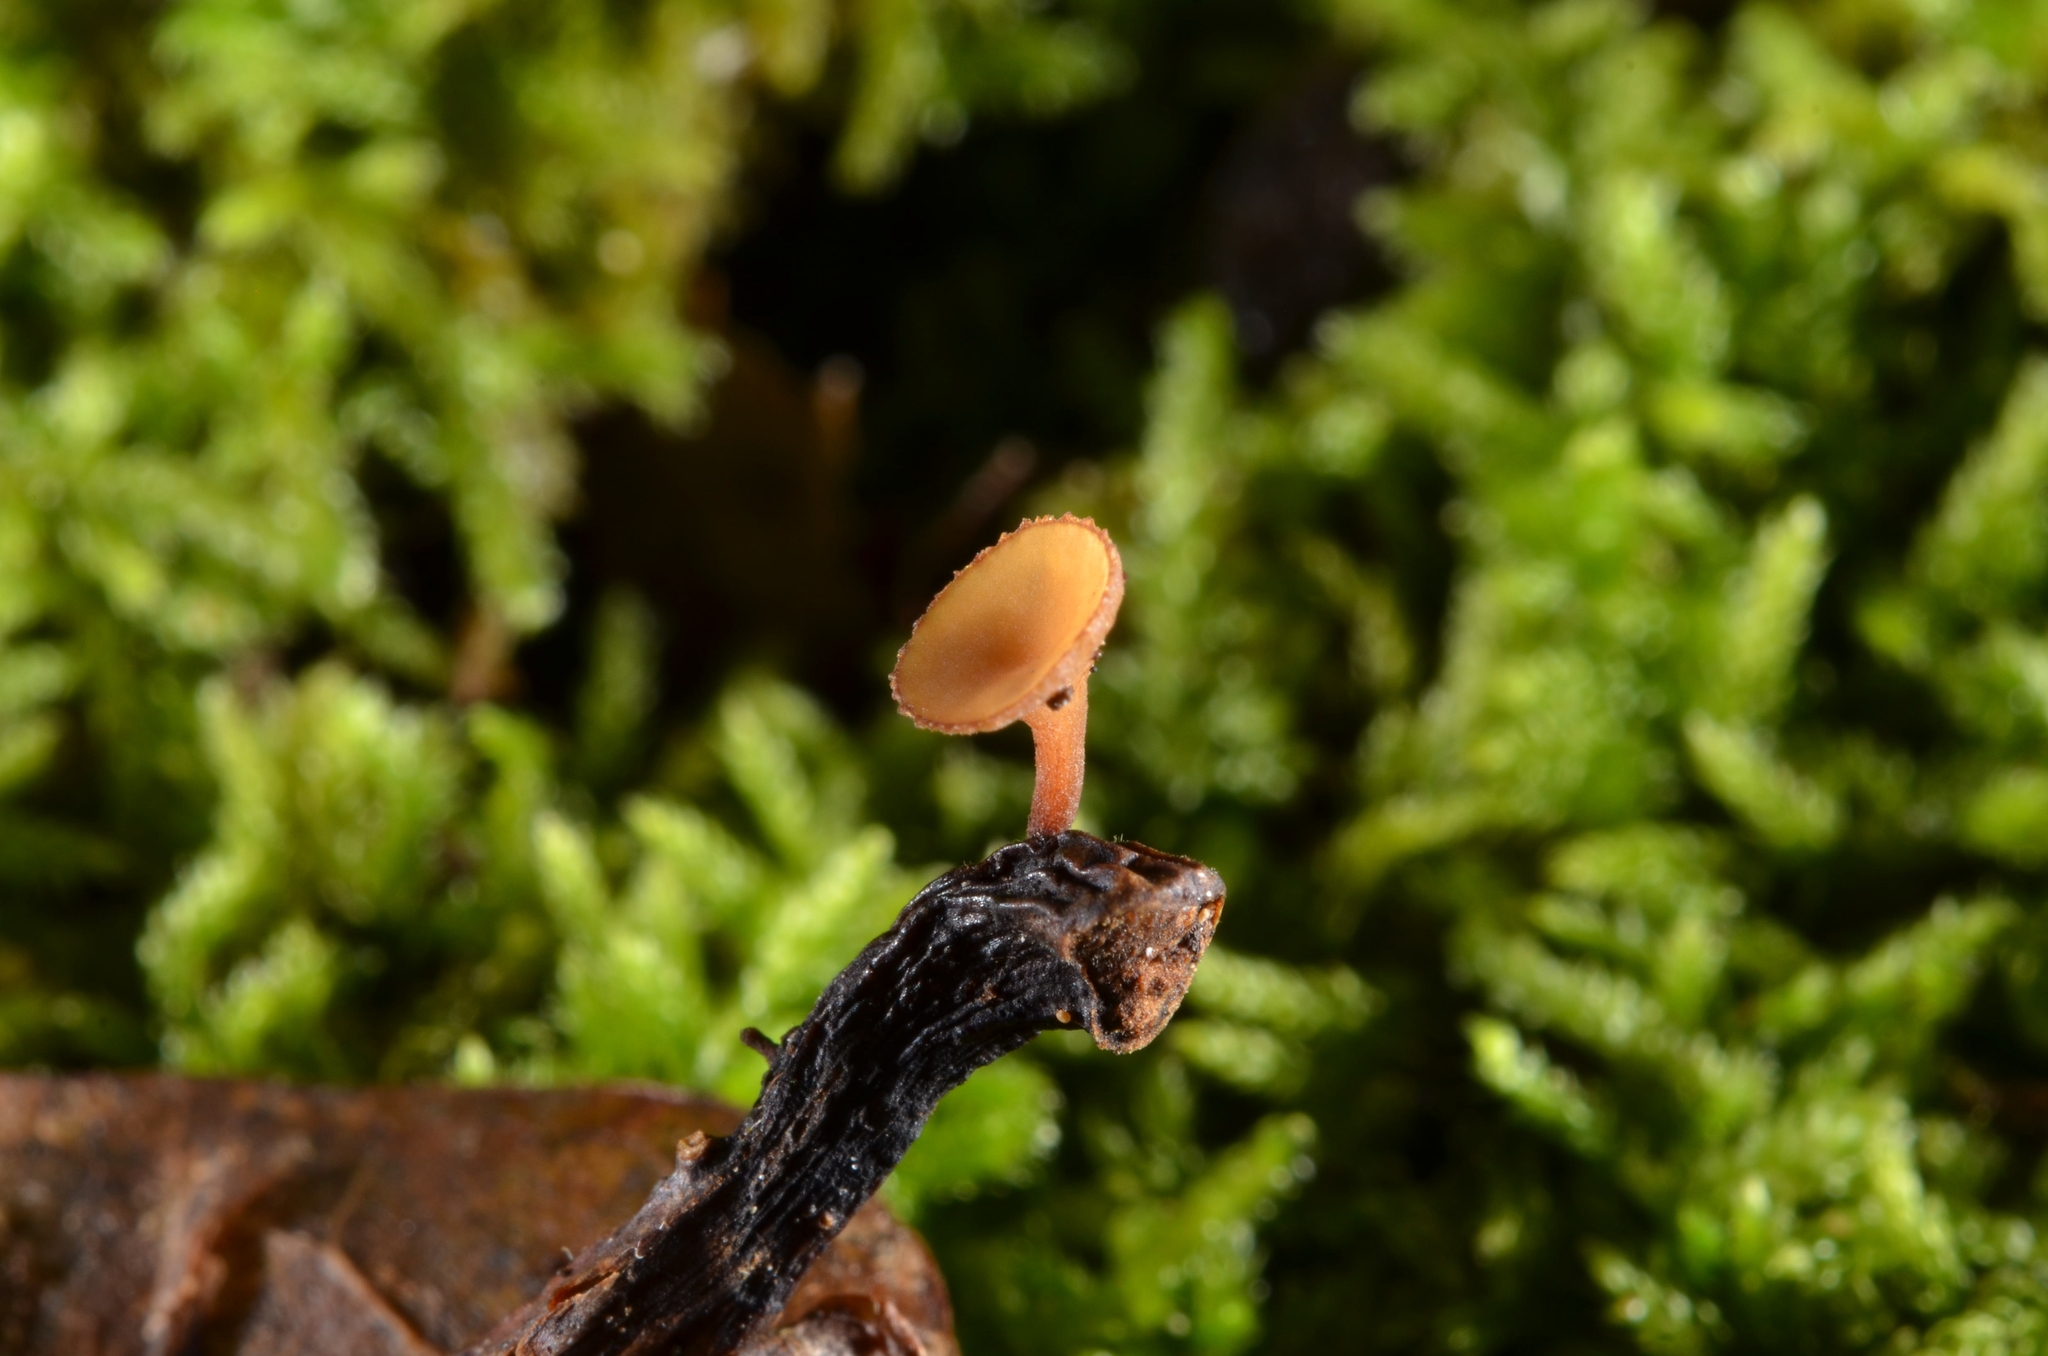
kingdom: Fungi
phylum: Ascomycota
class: Leotiomycetes
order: Helotiales
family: Rutstroemiaceae
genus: Rutstroemia
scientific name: Rutstroemia sydowiana
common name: Oakleaf cup
